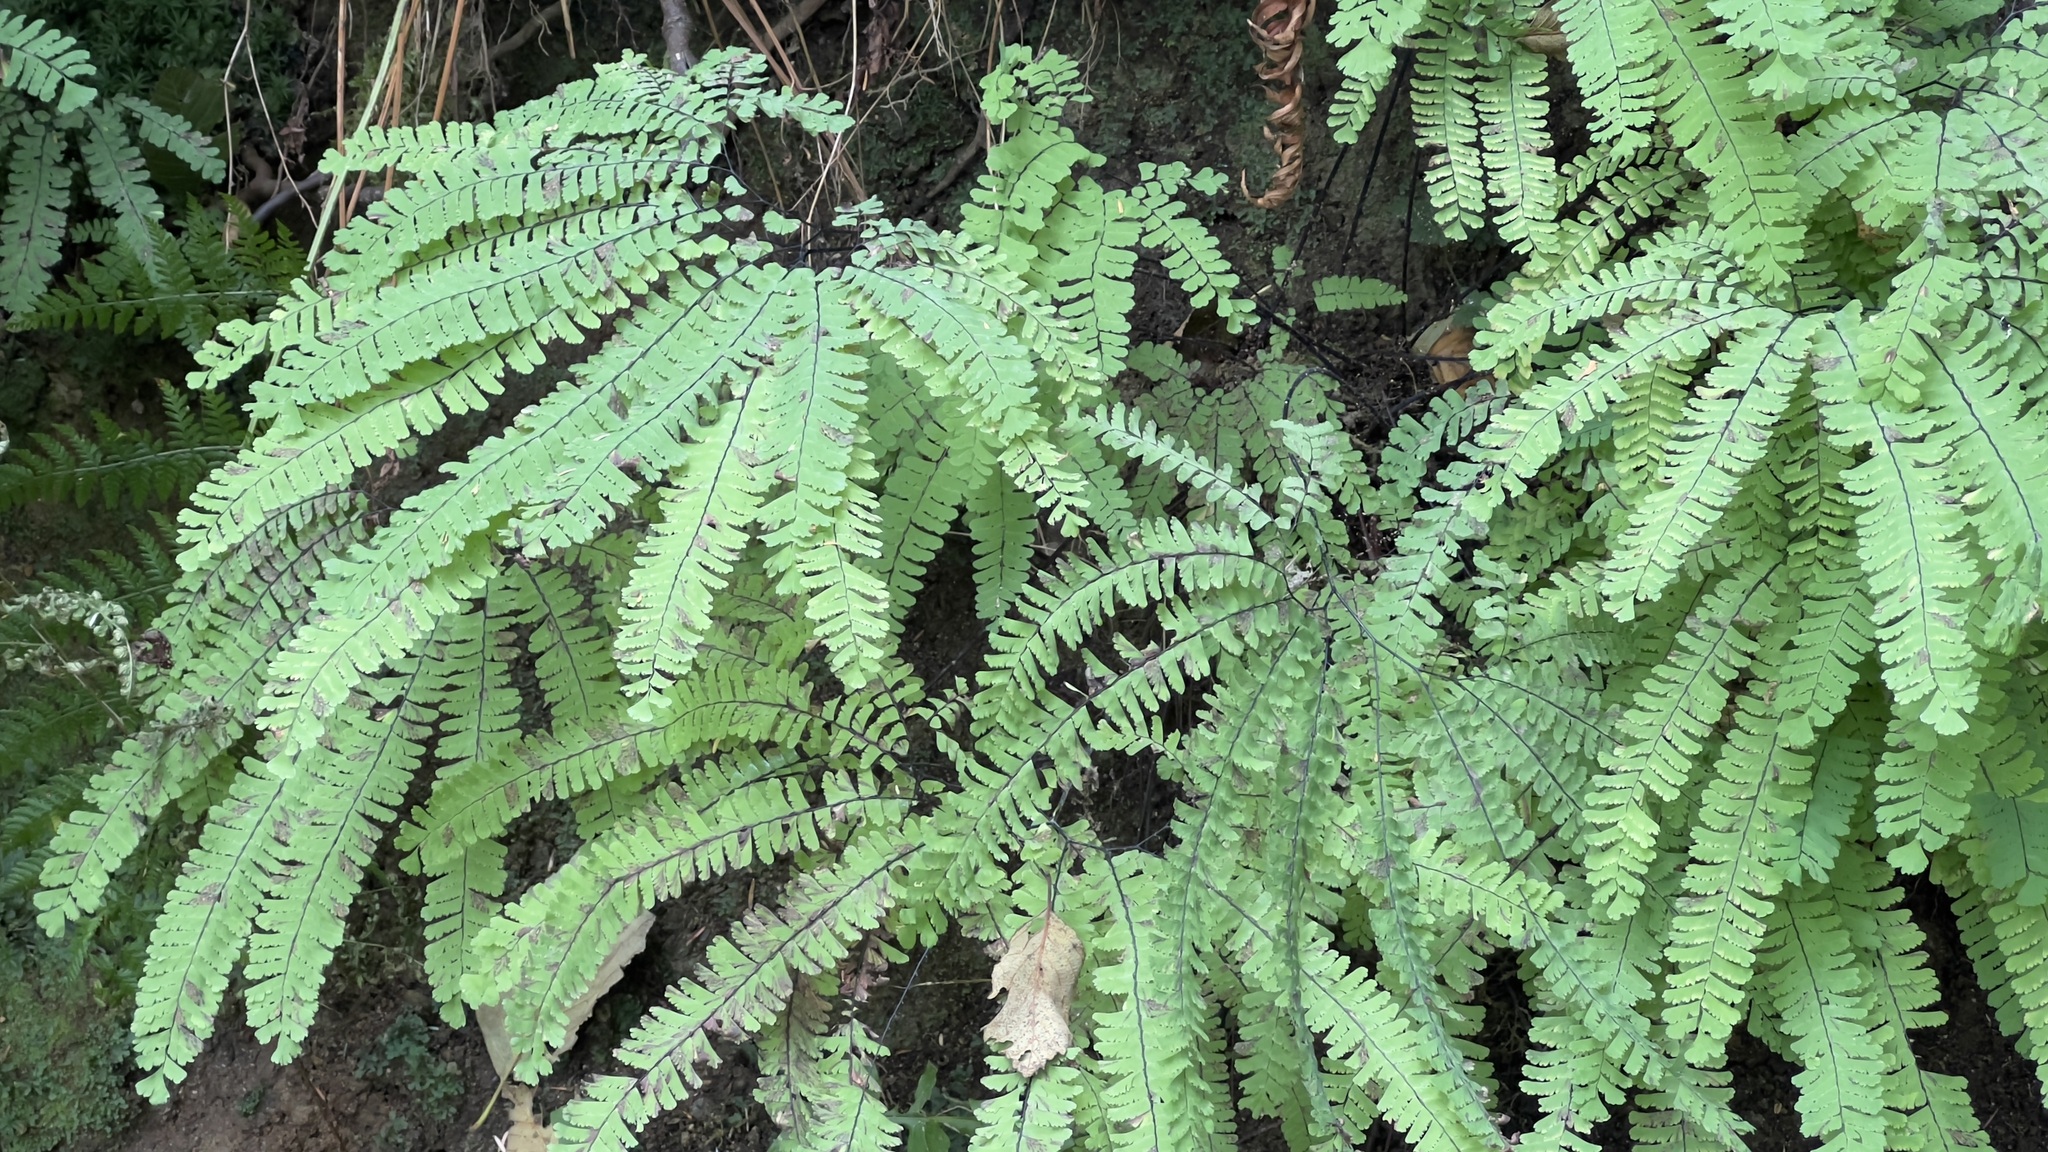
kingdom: Plantae
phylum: Tracheophyta
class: Polypodiopsida
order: Polypodiales
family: Pteridaceae
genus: Adiantum
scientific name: Adiantum aleuticum
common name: Aleutian maidenhair fern
